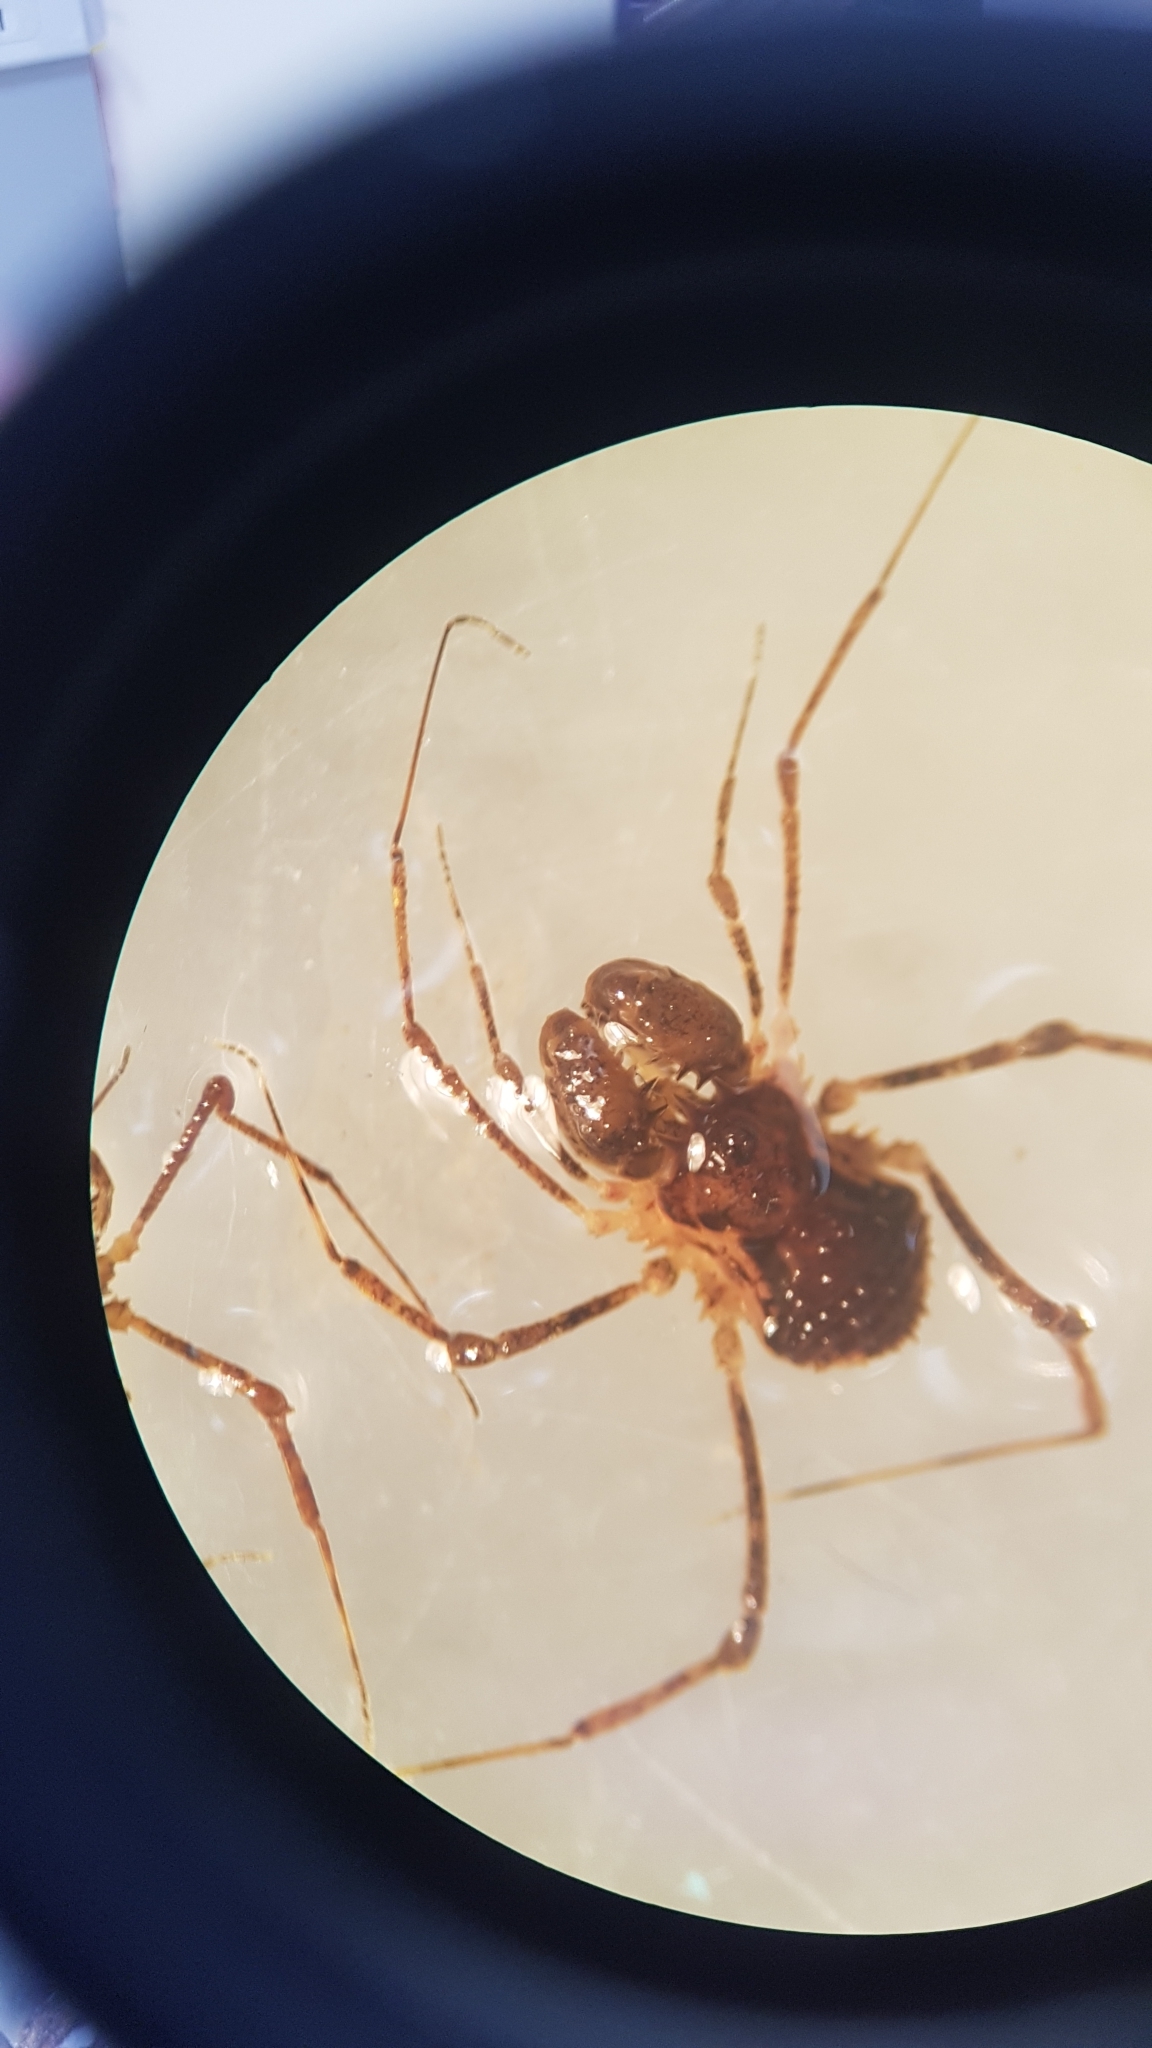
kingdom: Animalia
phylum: Arthropoda
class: Arachnida
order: Opiliones
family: Triaenonychidae
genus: Algidia
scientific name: Algidia chiltoni
